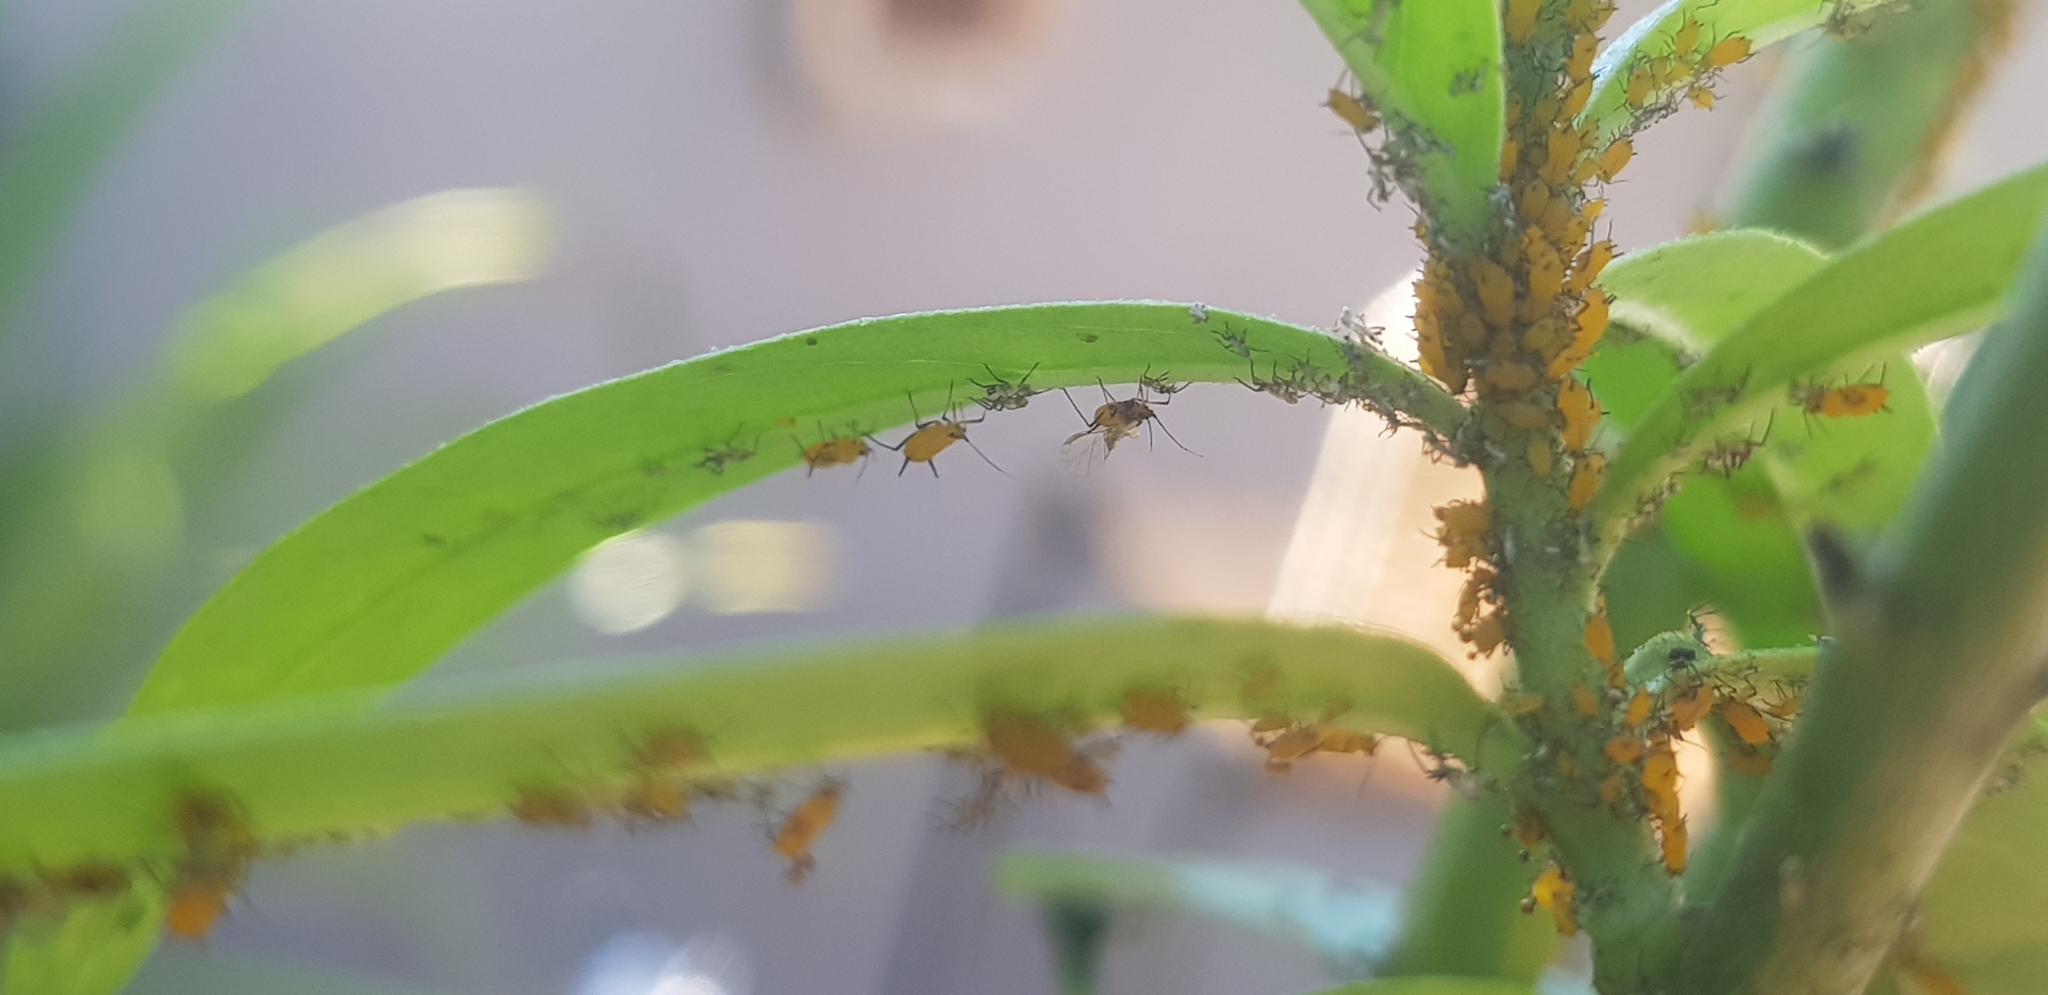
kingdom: Animalia
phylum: Arthropoda
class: Insecta
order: Hemiptera
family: Aphididae
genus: Aphis
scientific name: Aphis nerii
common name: Oleander aphid
